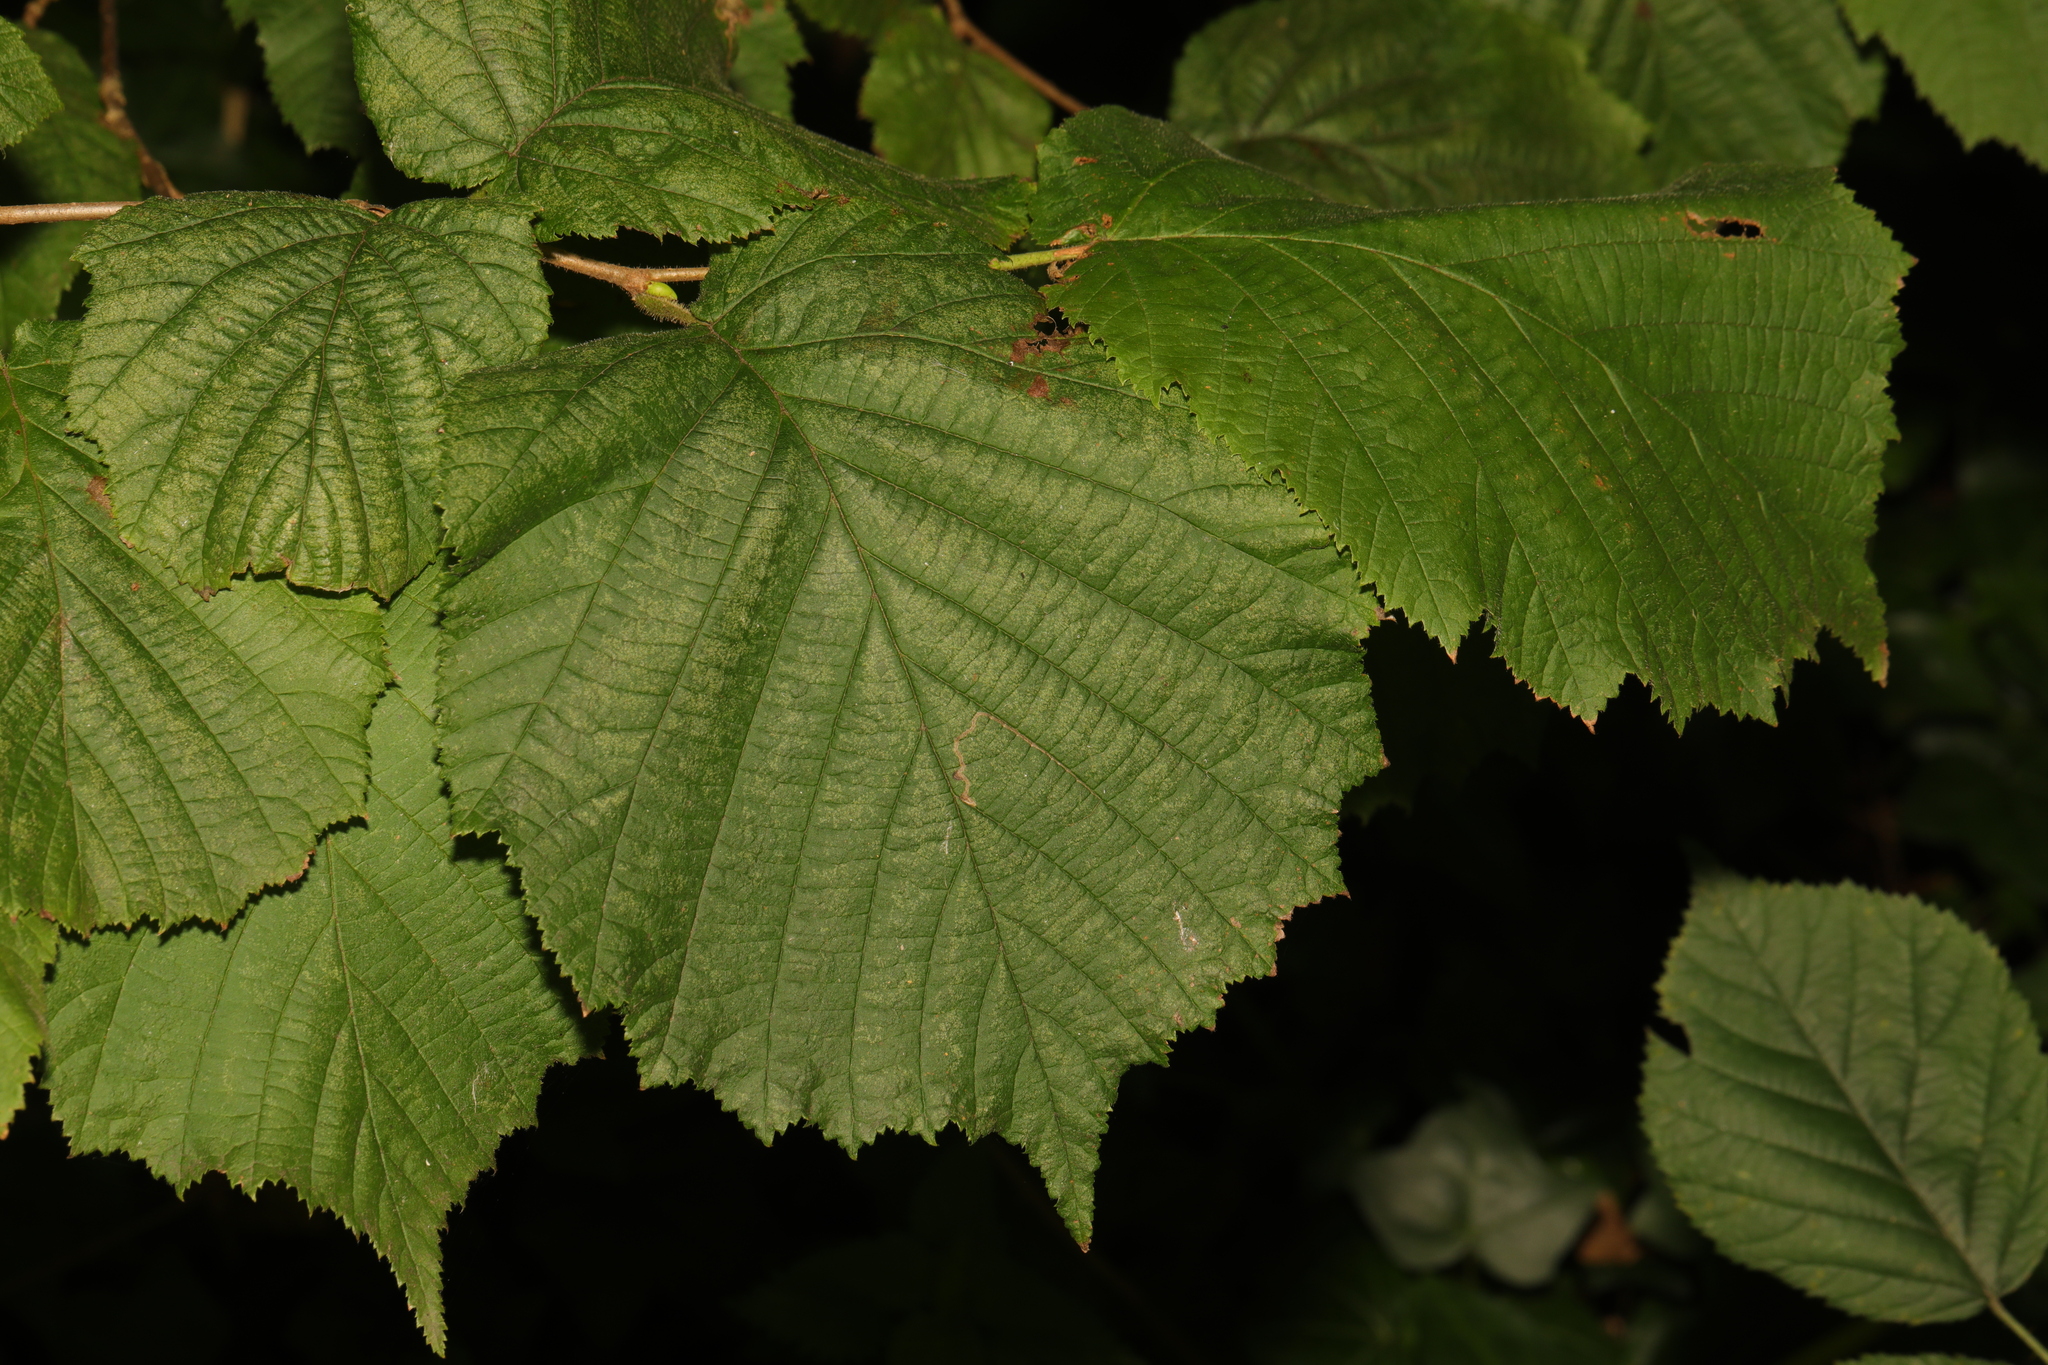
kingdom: Plantae
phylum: Tracheophyta
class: Magnoliopsida
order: Fagales
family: Betulaceae
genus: Corylus
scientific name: Corylus avellana
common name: European hazel
